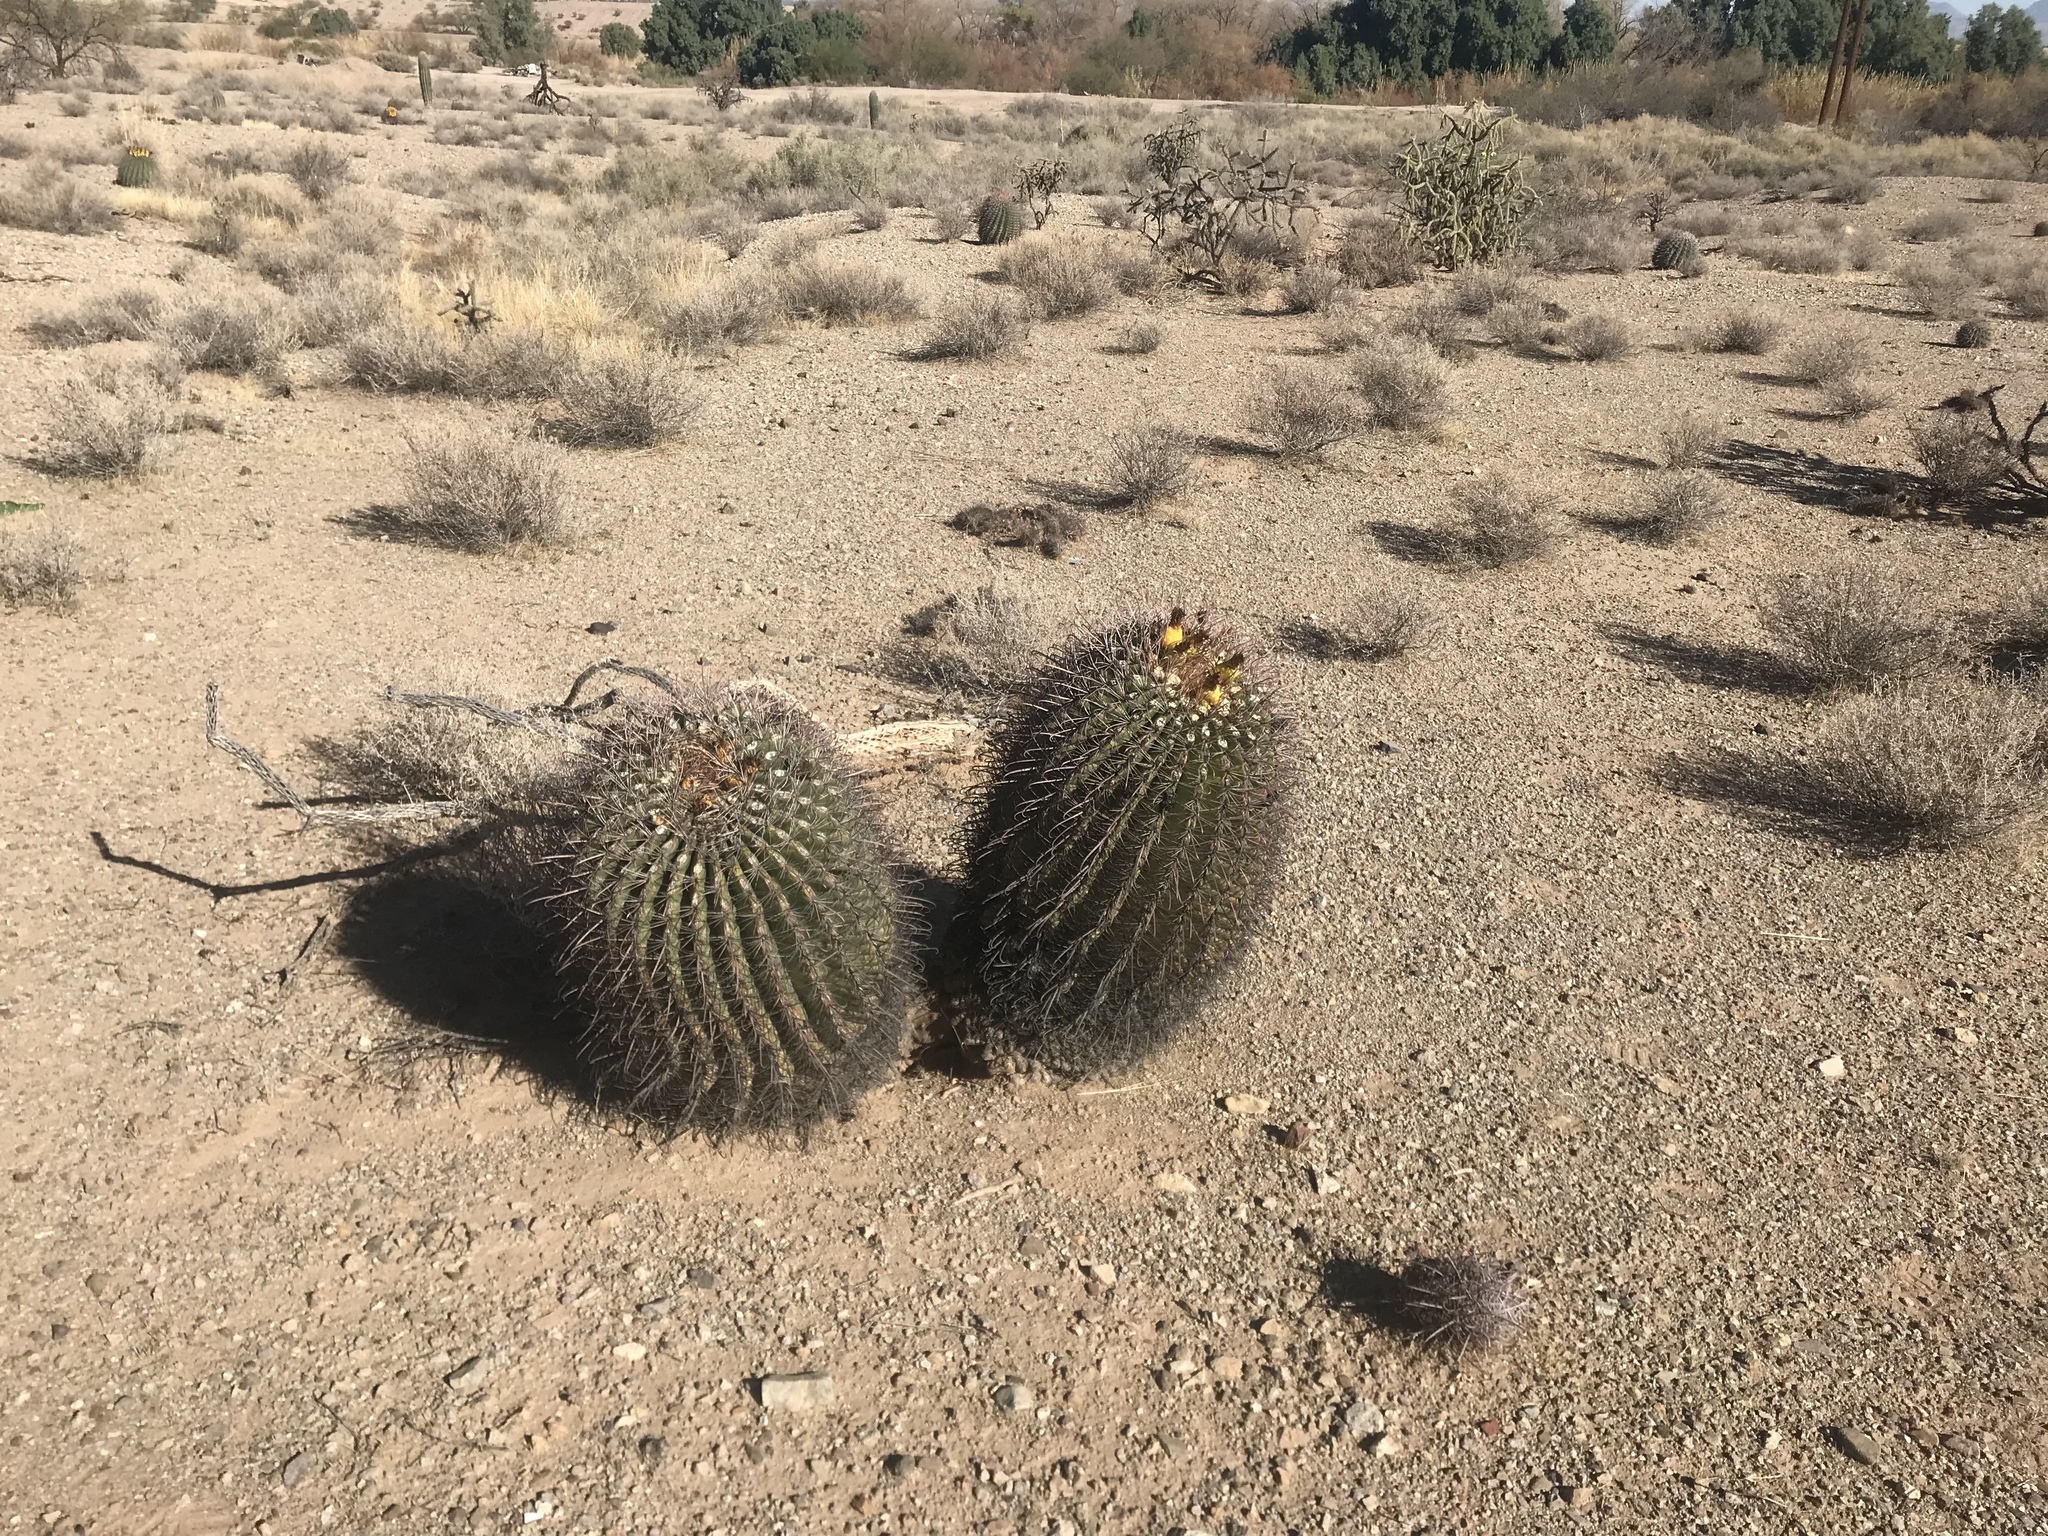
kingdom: Plantae
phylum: Tracheophyta
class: Magnoliopsida
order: Caryophyllales
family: Cactaceae
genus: Ferocactus
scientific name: Ferocactus wislizeni
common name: Candy barrel cactus
